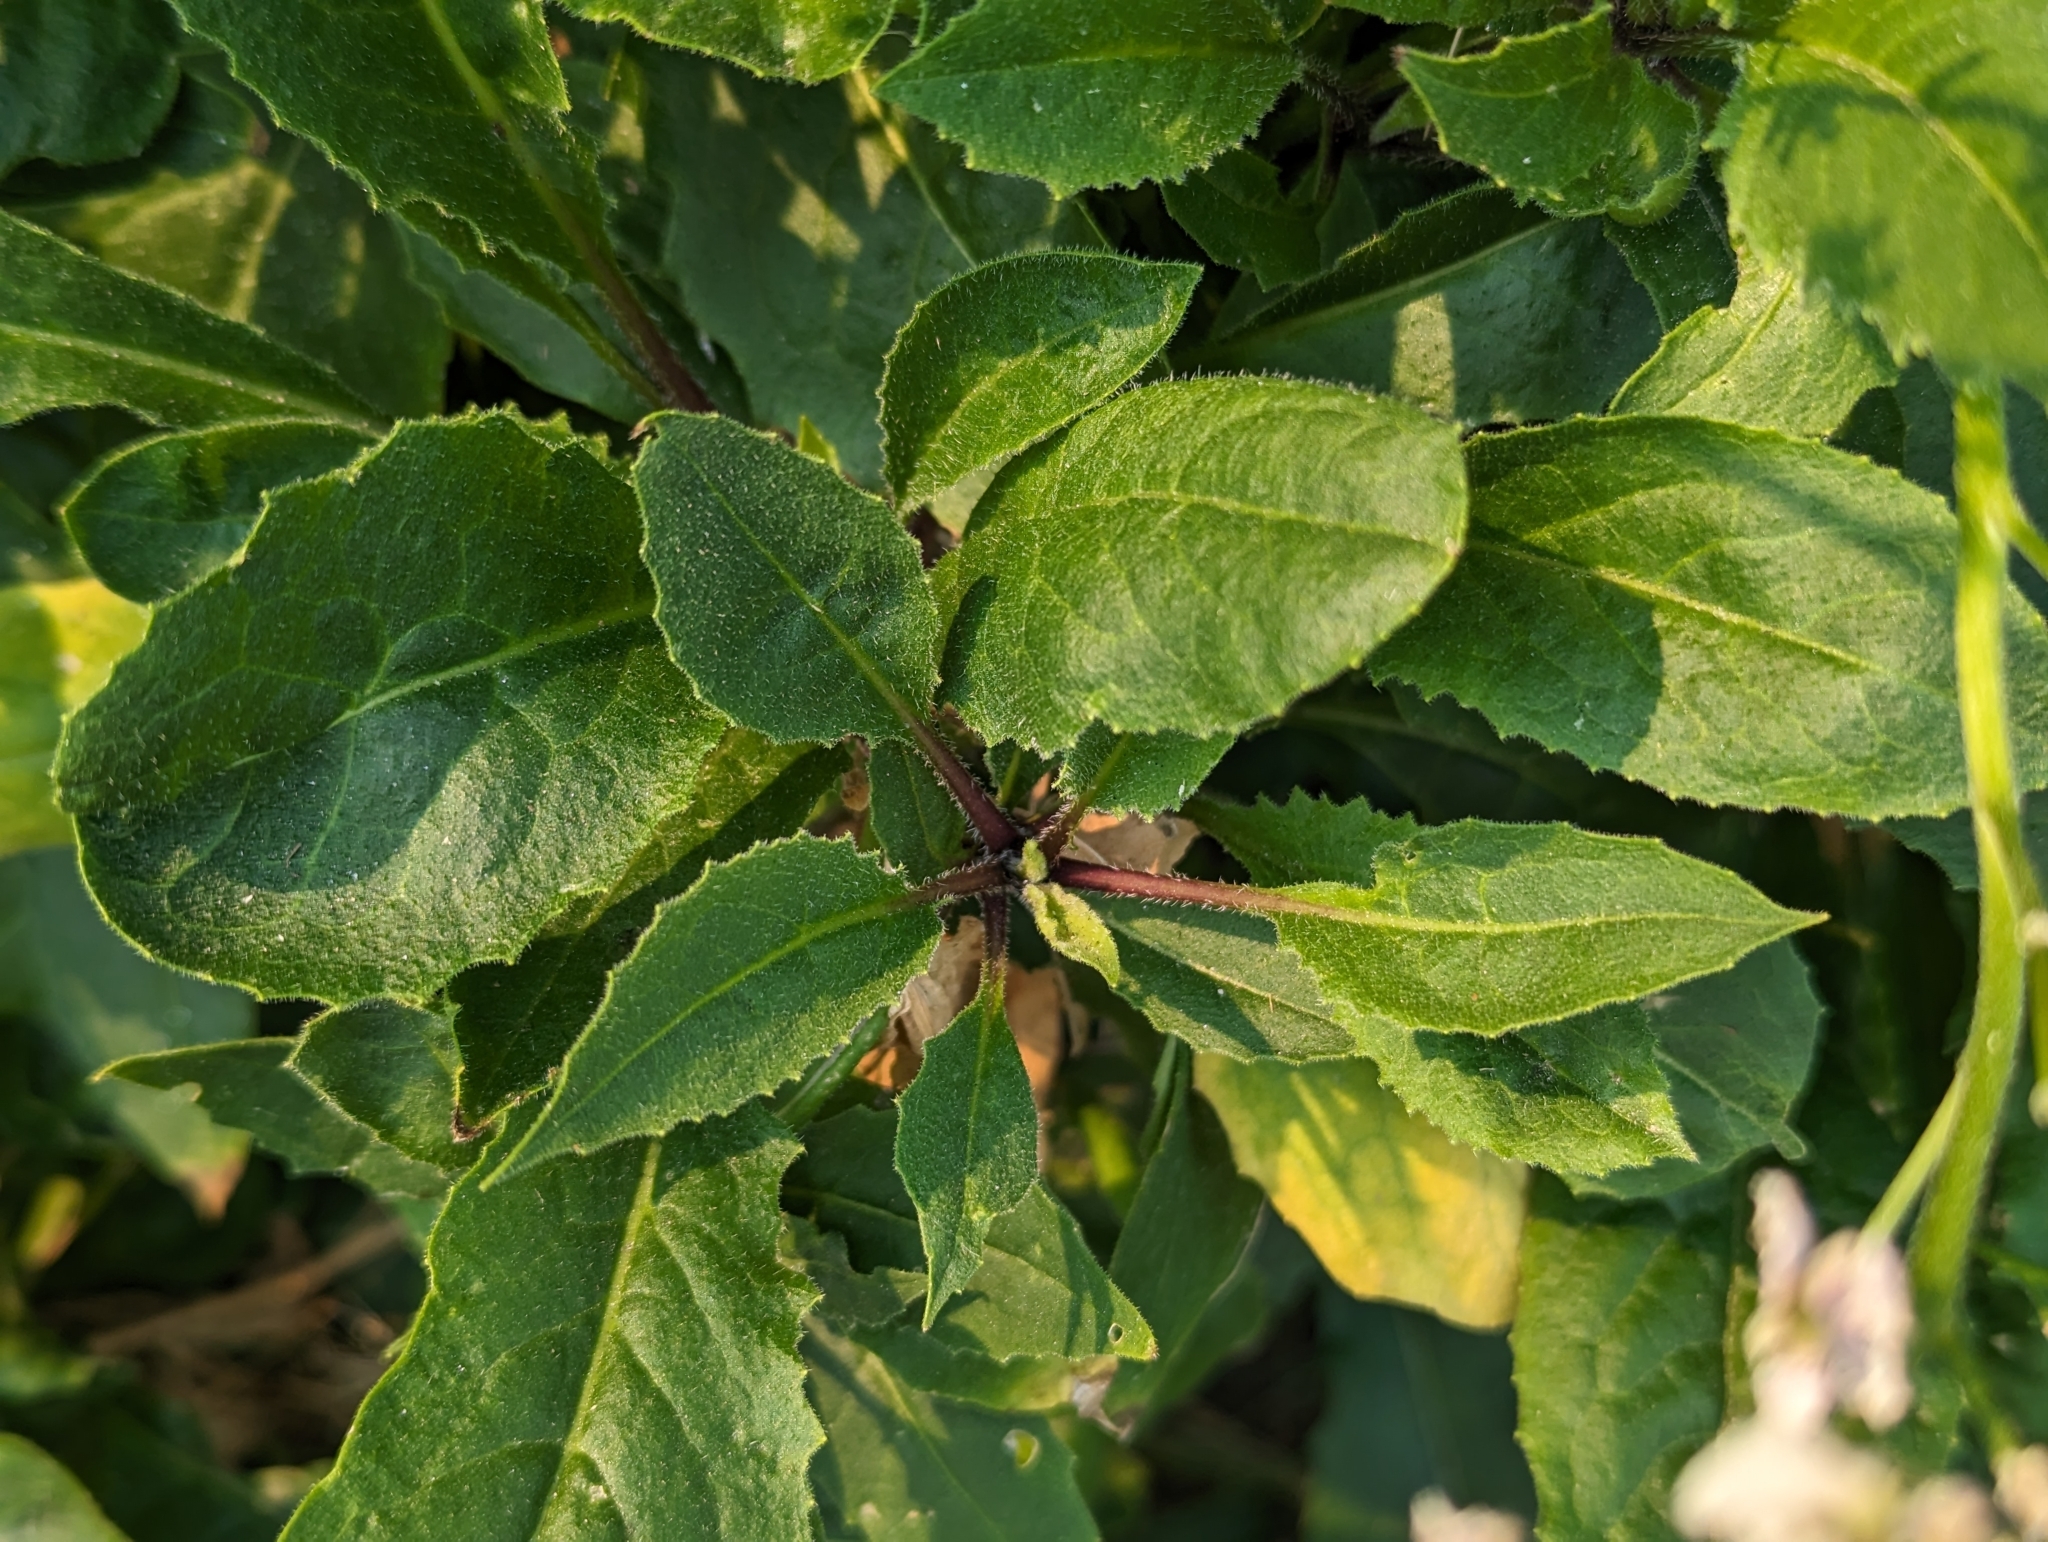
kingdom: Plantae
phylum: Tracheophyta
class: Magnoliopsida
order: Brassicales
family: Brassicaceae
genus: Hesperis
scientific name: Hesperis matronalis
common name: Dame's-violet
